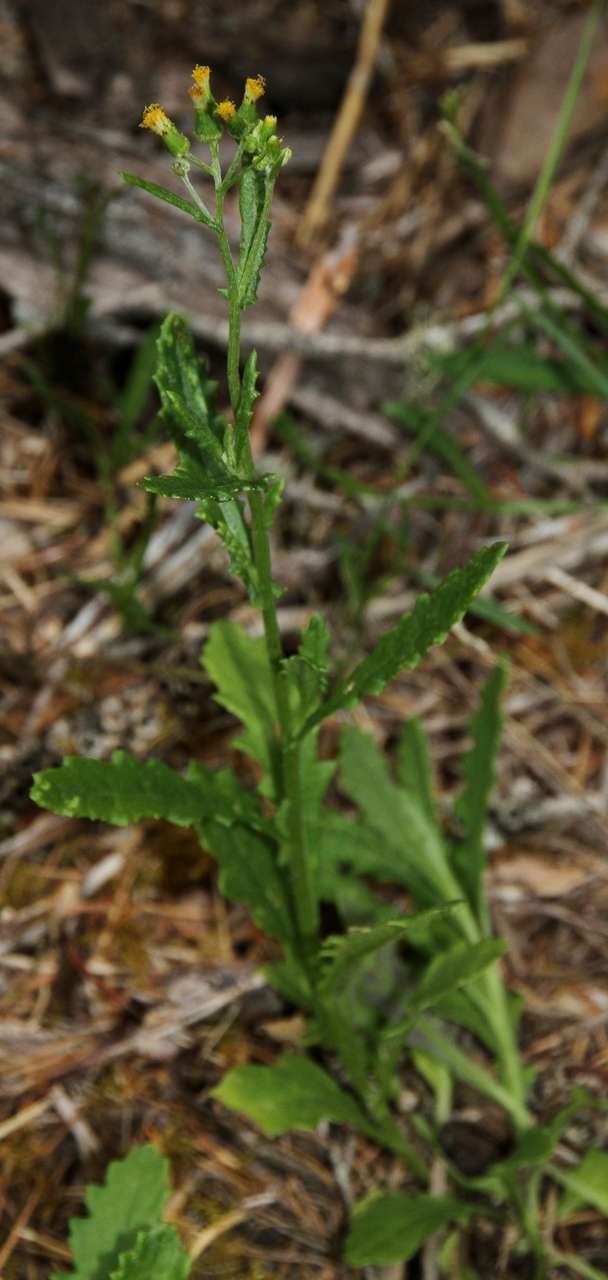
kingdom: Plantae
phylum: Tracheophyta
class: Magnoliopsida
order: Asterales
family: Asteraceae
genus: Senecio
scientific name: Senecio glomeratus
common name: Cutleaf burnweed
